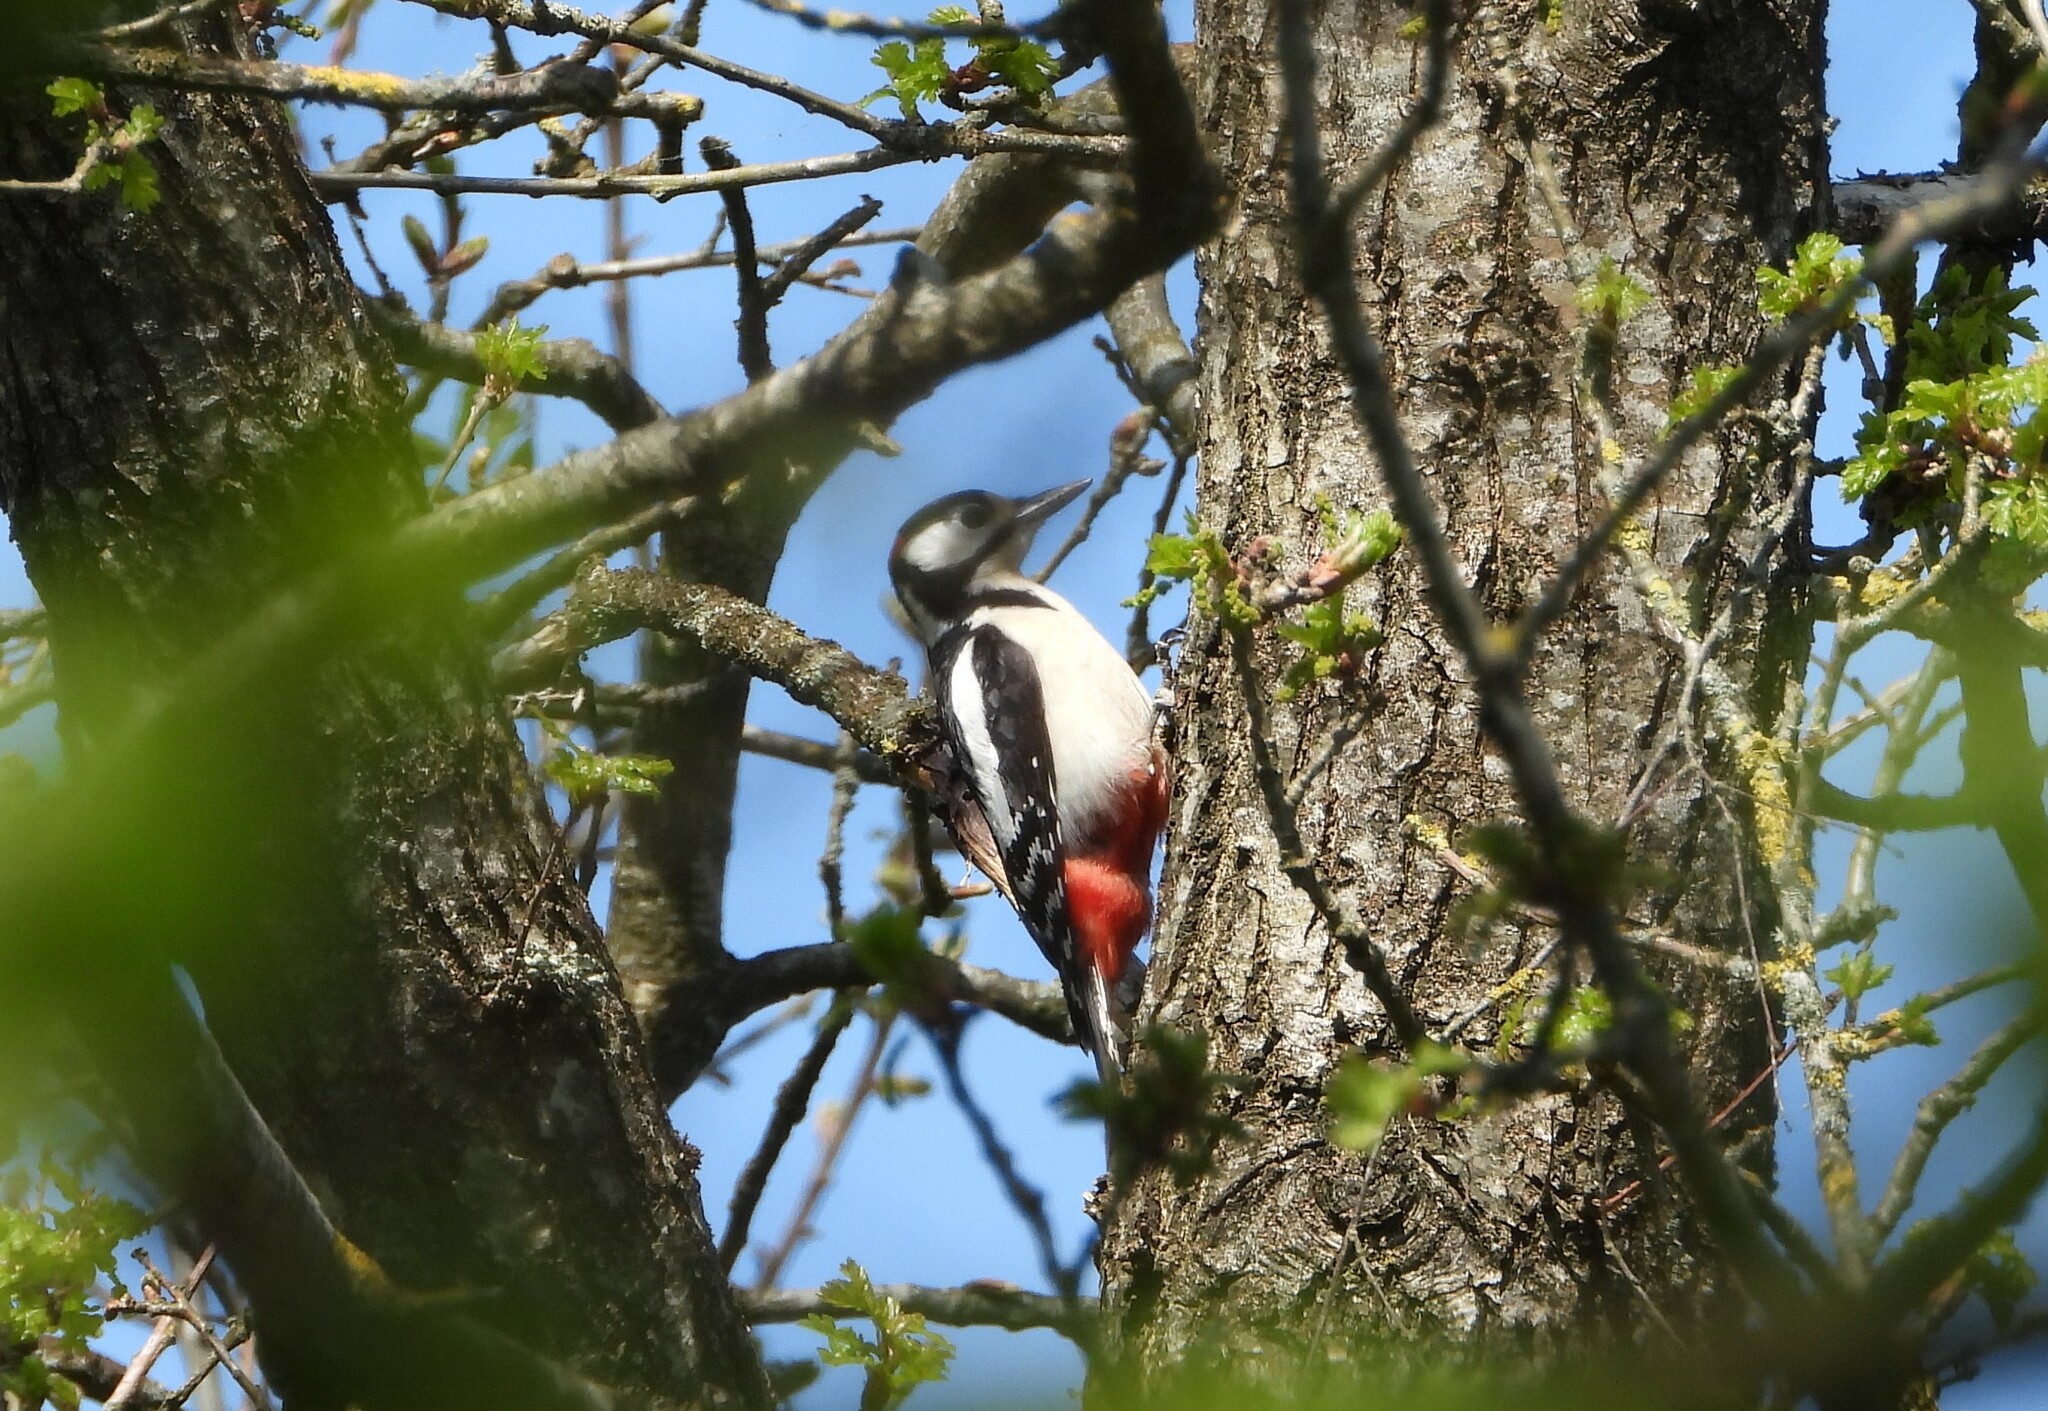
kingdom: Animalia
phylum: Chordata
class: Aves
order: Piciformes
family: Picidae
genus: Dendrocopos
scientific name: Dendrocopos major
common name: Great spotted woodpecker
